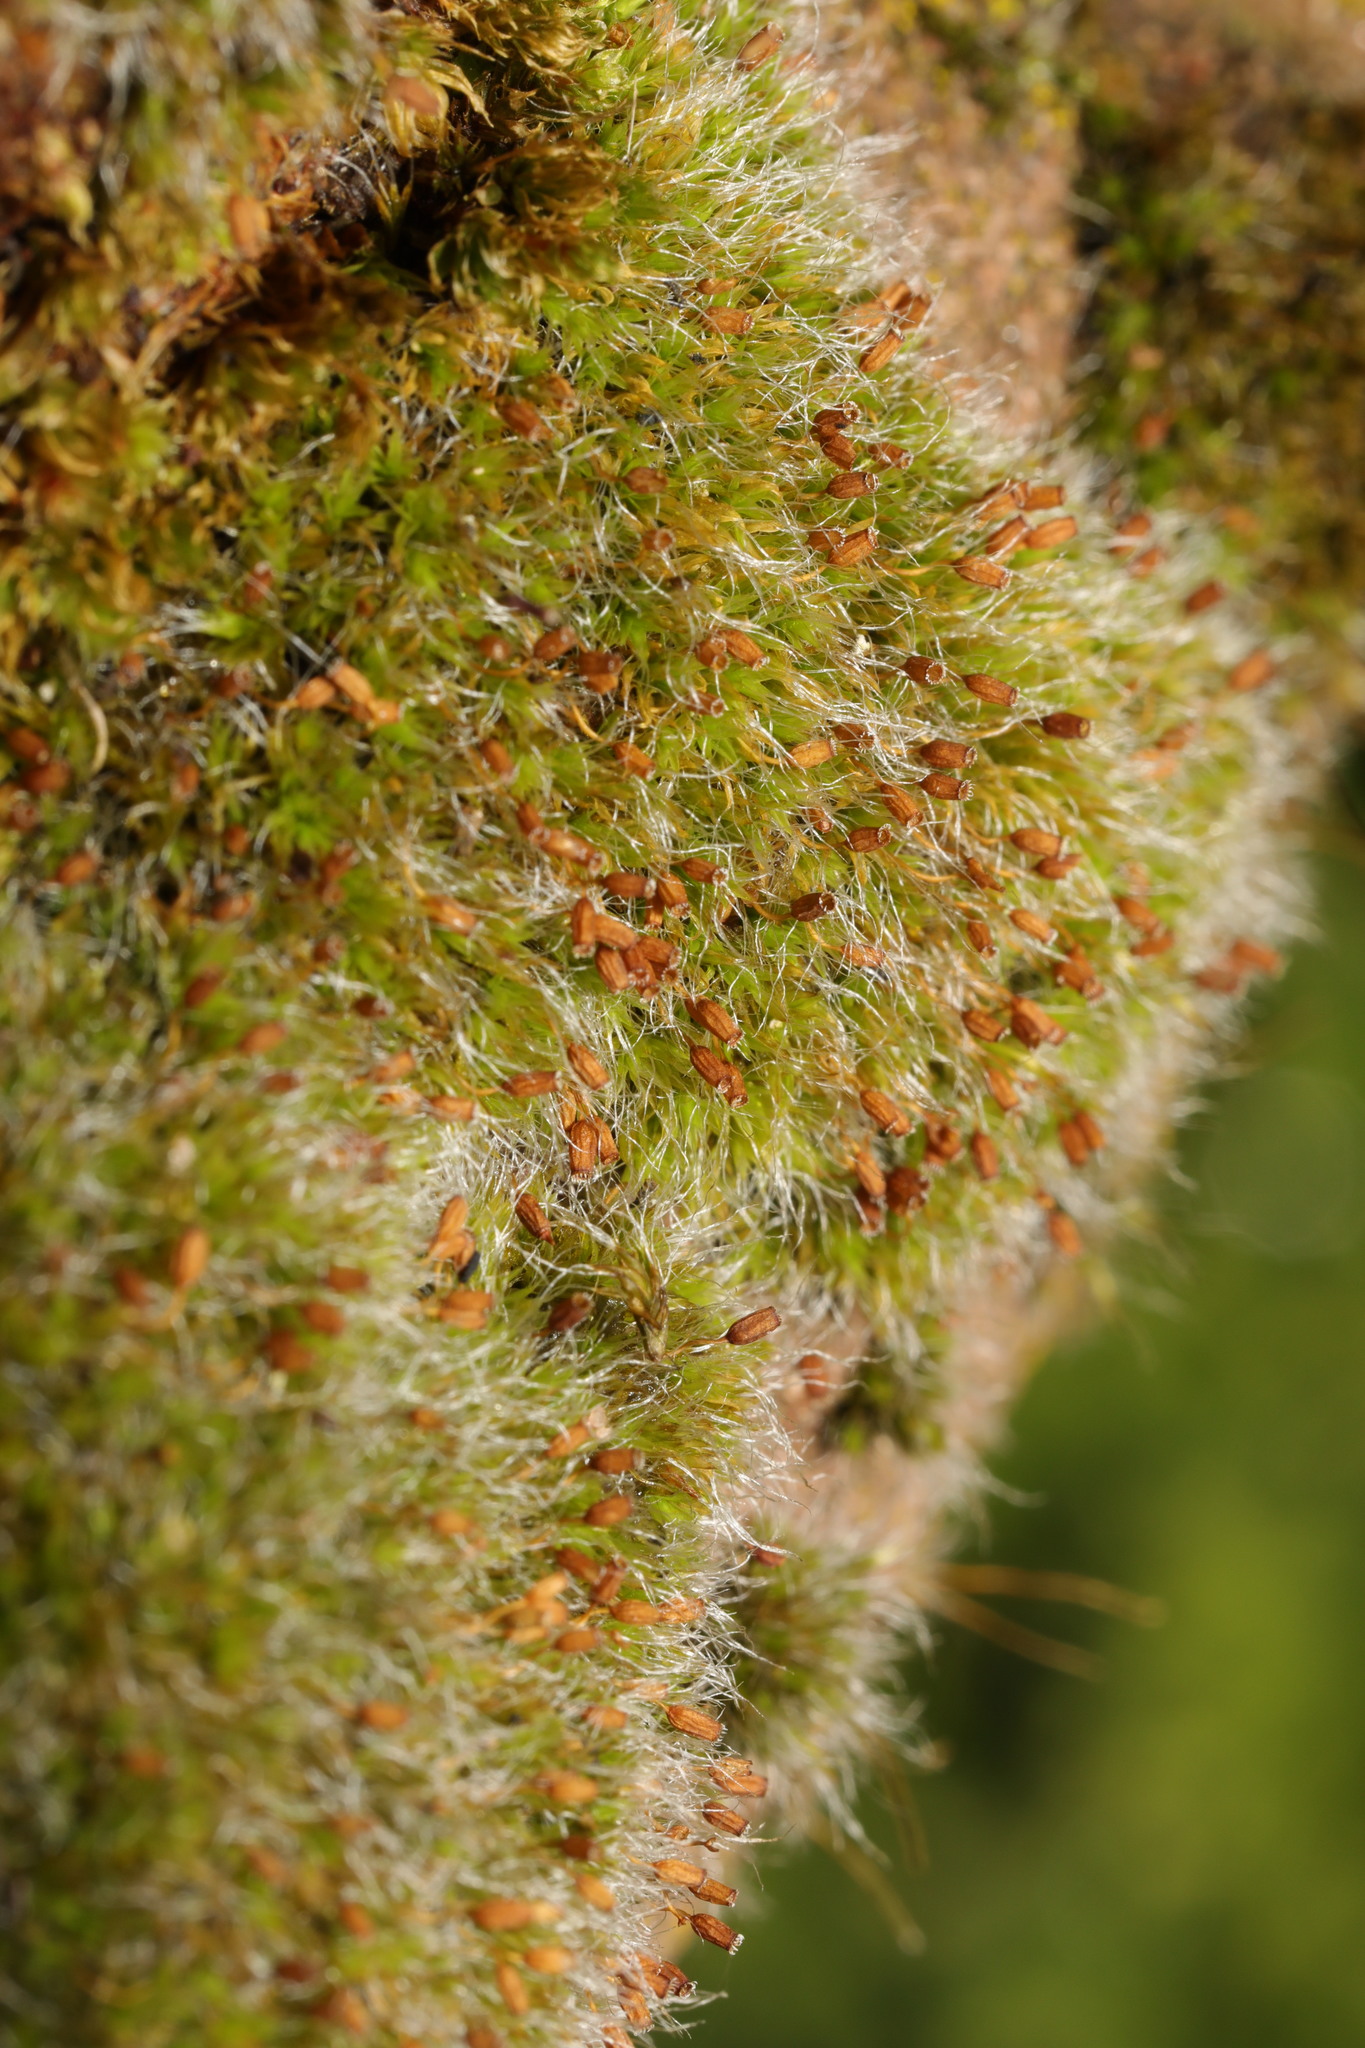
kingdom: Plantae
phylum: Bryophyta
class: Bryopsida
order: Grimmiales
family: Grimmiaceae
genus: Grimmia
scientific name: Grimmia pulvinata
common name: Grey-cushioned grimmia
